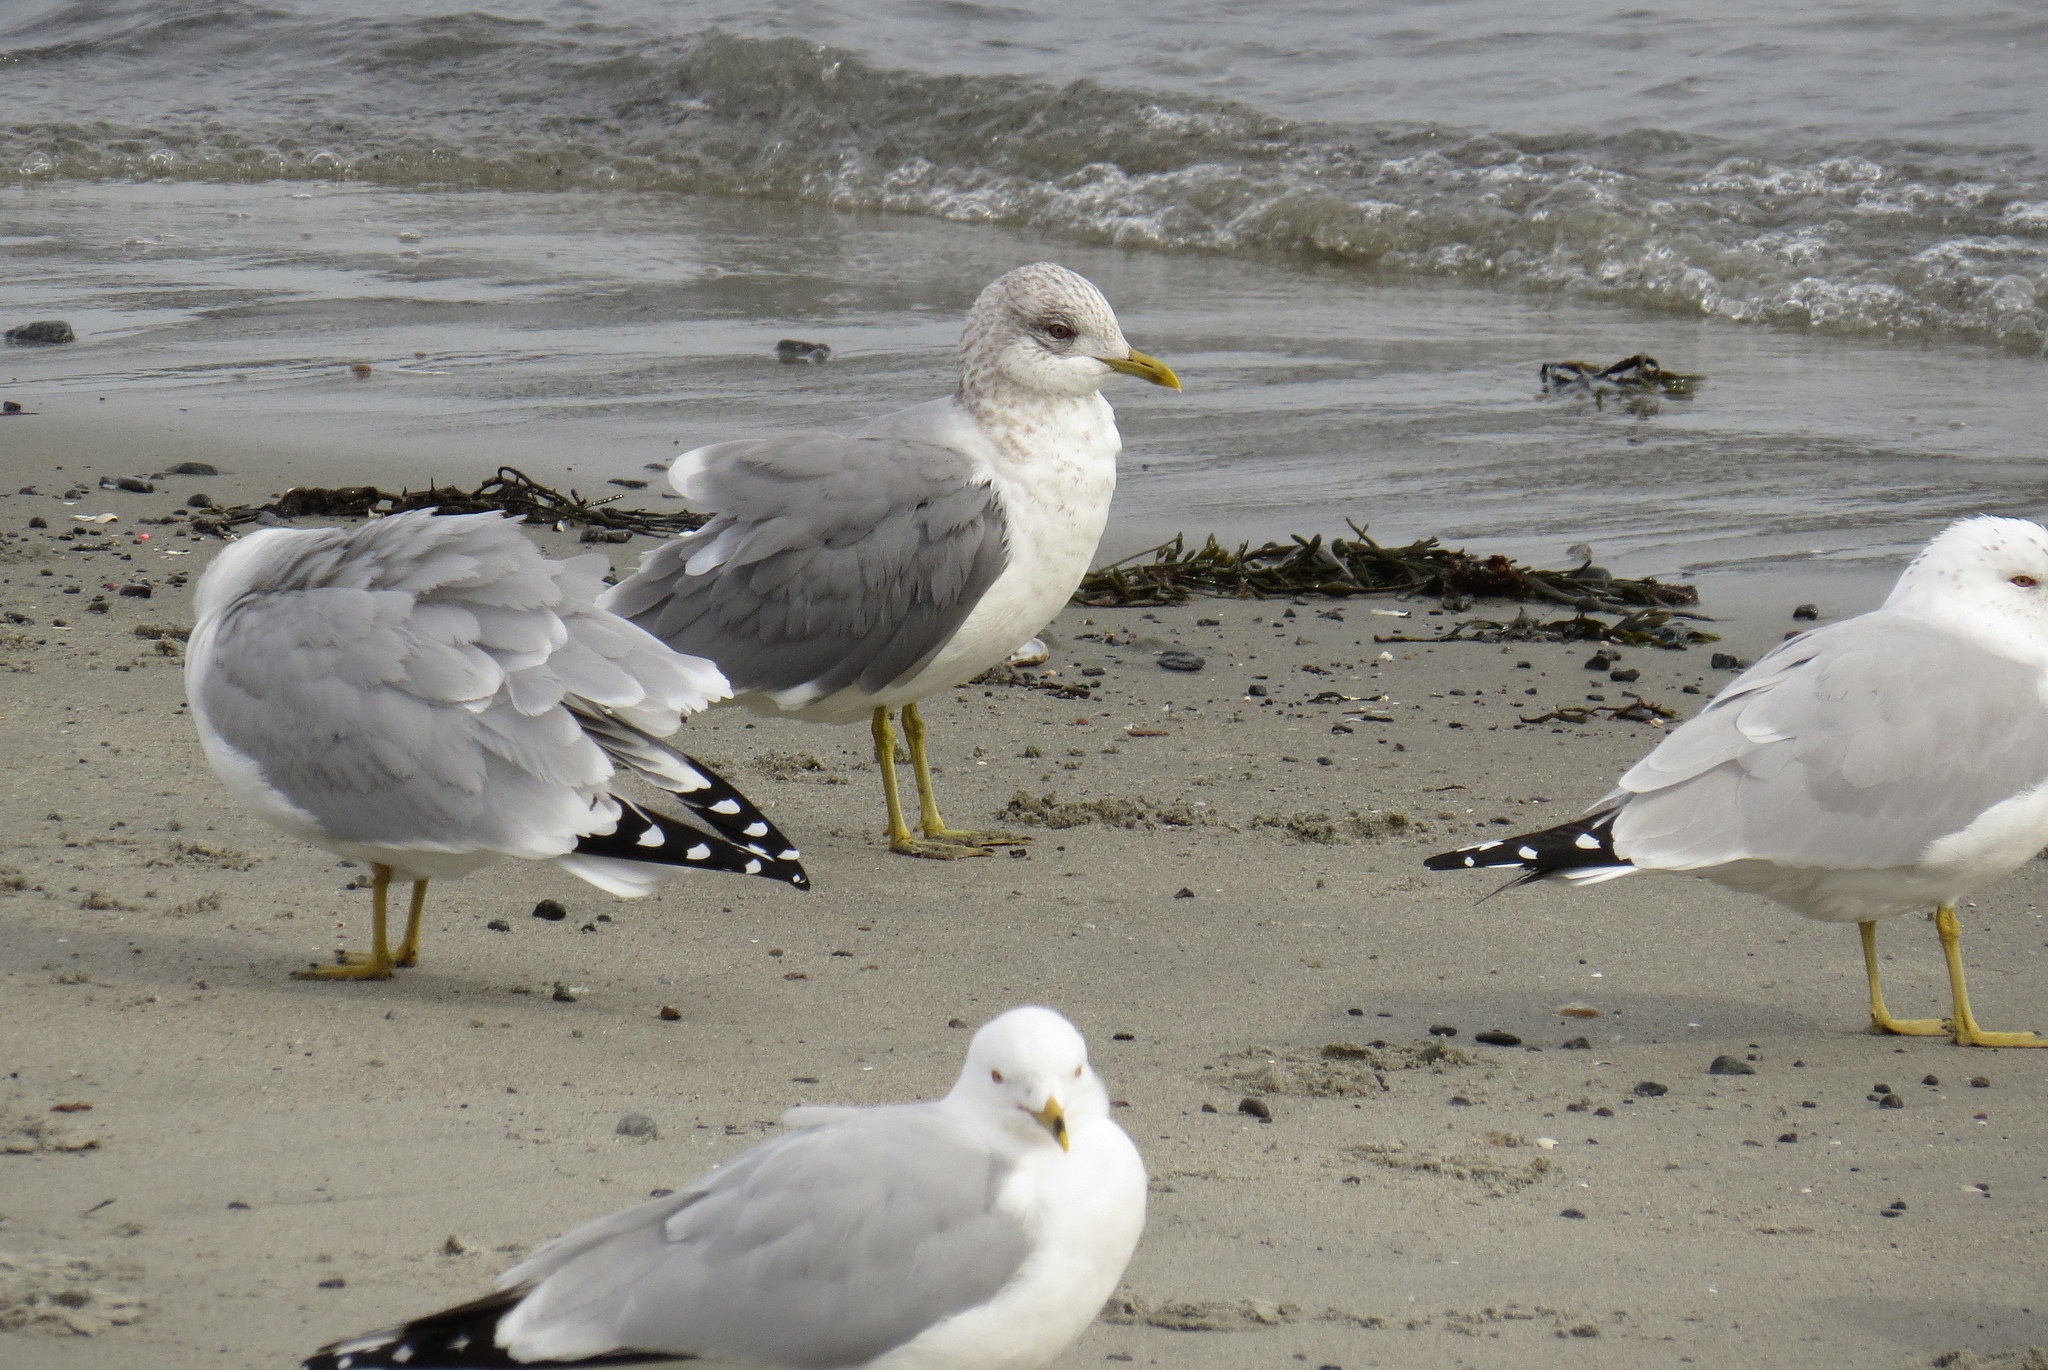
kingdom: Animalia
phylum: Chordata
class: Aves
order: Charadriiformes
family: Laridae
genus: Larus
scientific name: Larus canus
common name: Mew gull
